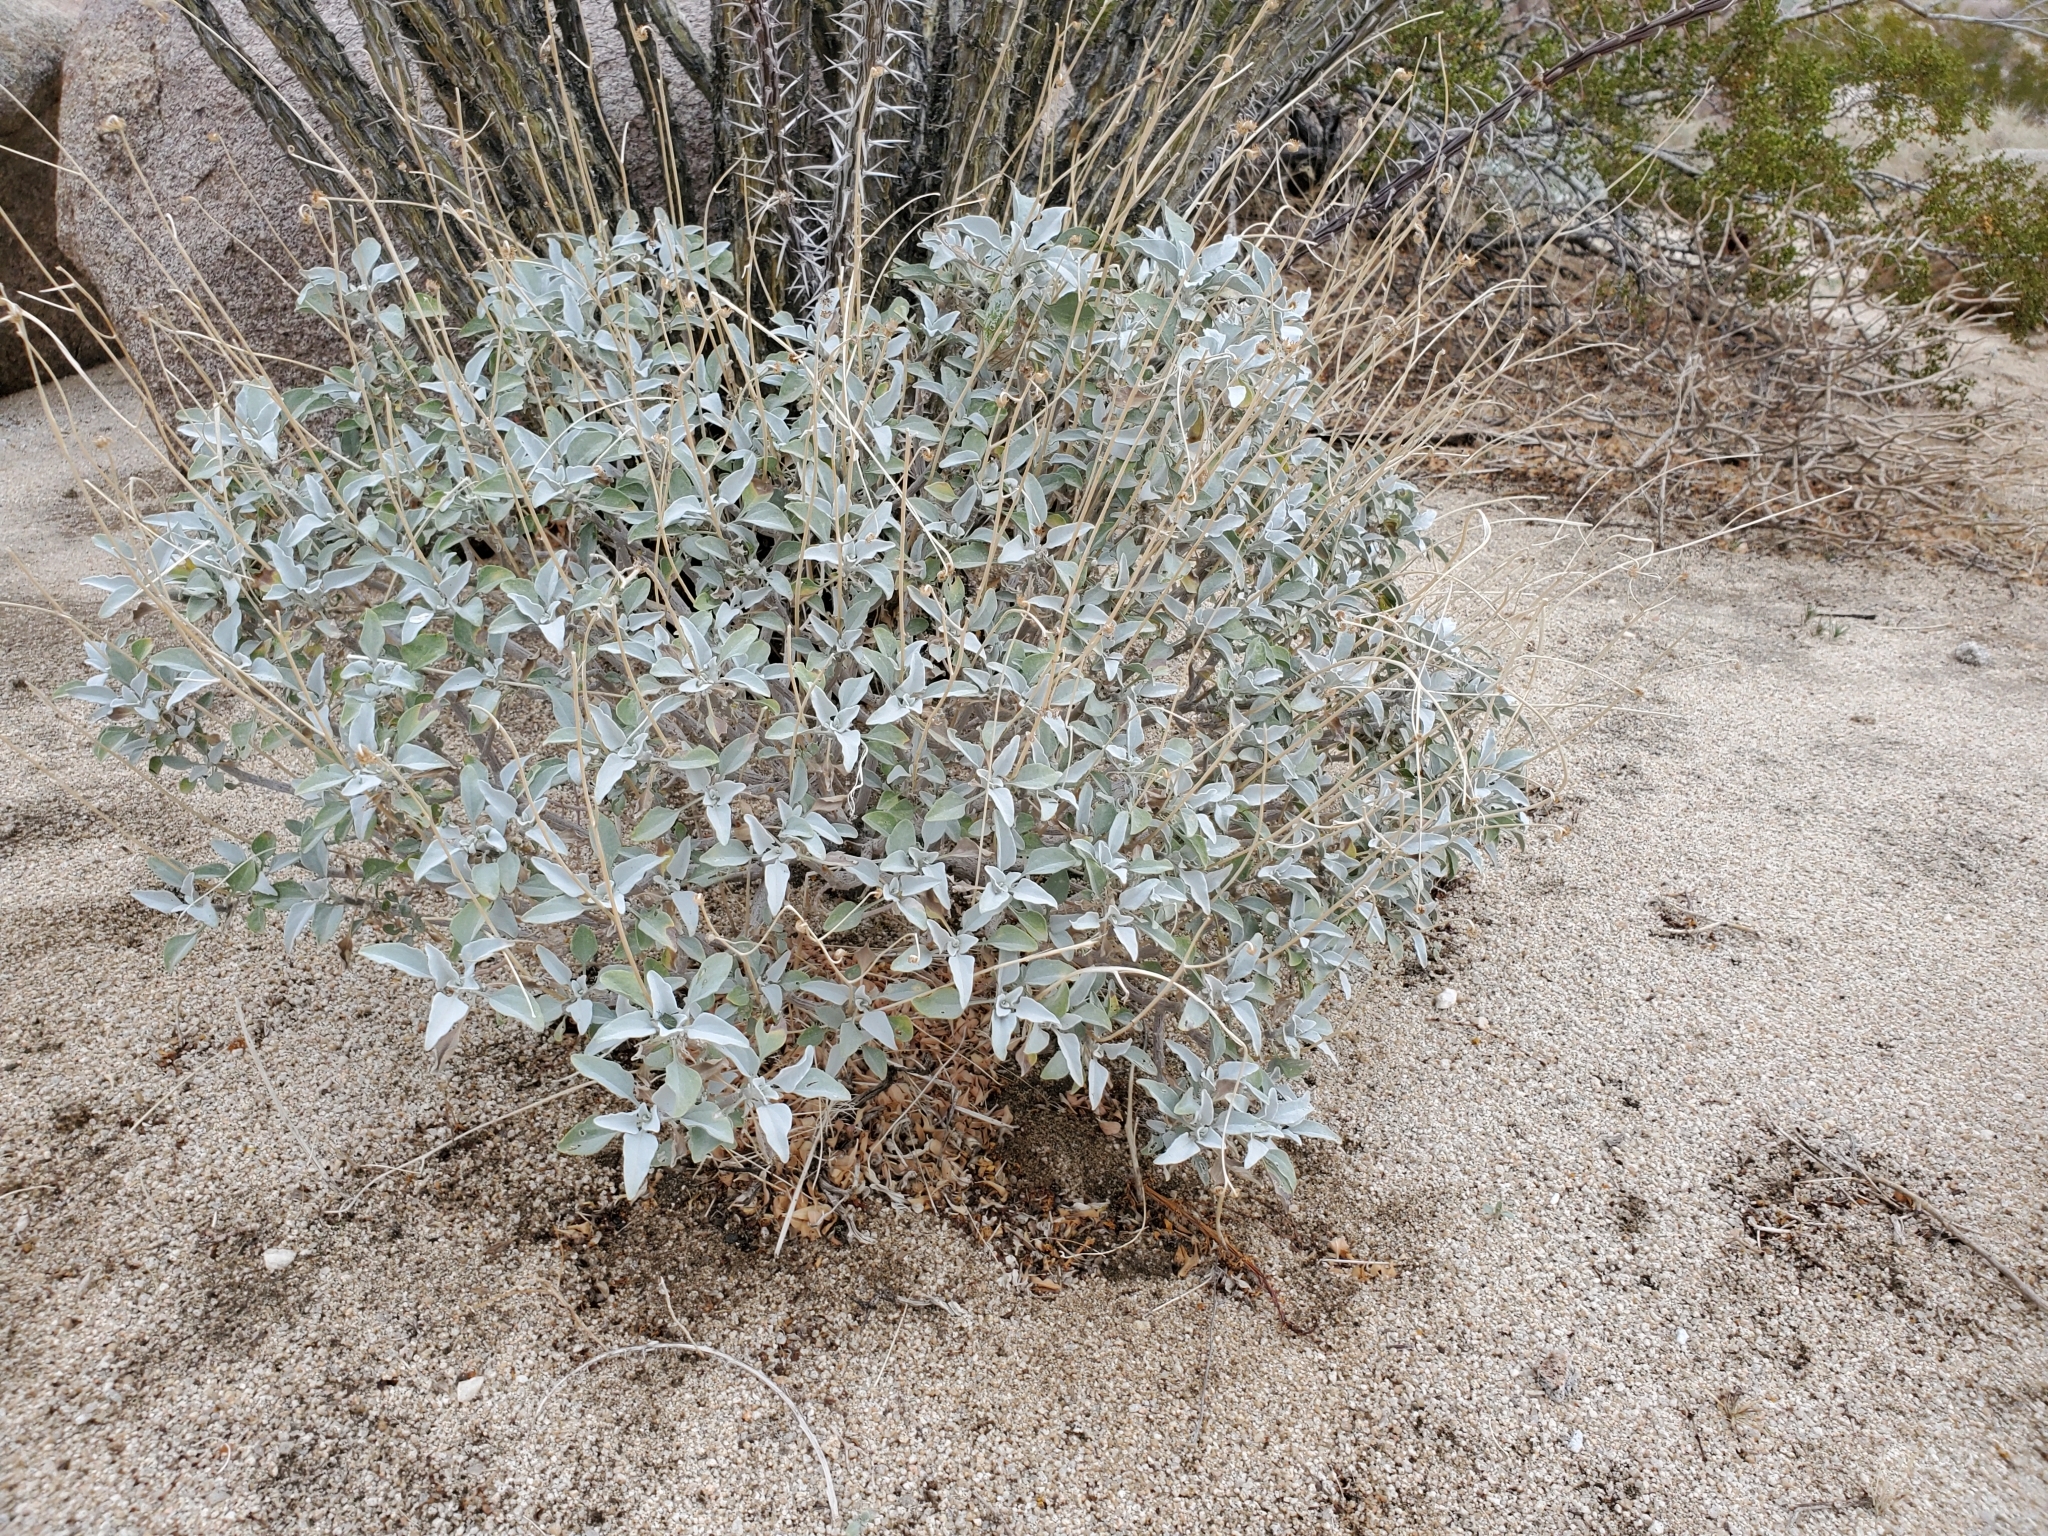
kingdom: Plantae
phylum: Tracheophyta
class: Magnoliopsida
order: Asterales
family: Asteraceae
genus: Encelia
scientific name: Encelia farinosa
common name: Brittlebush
